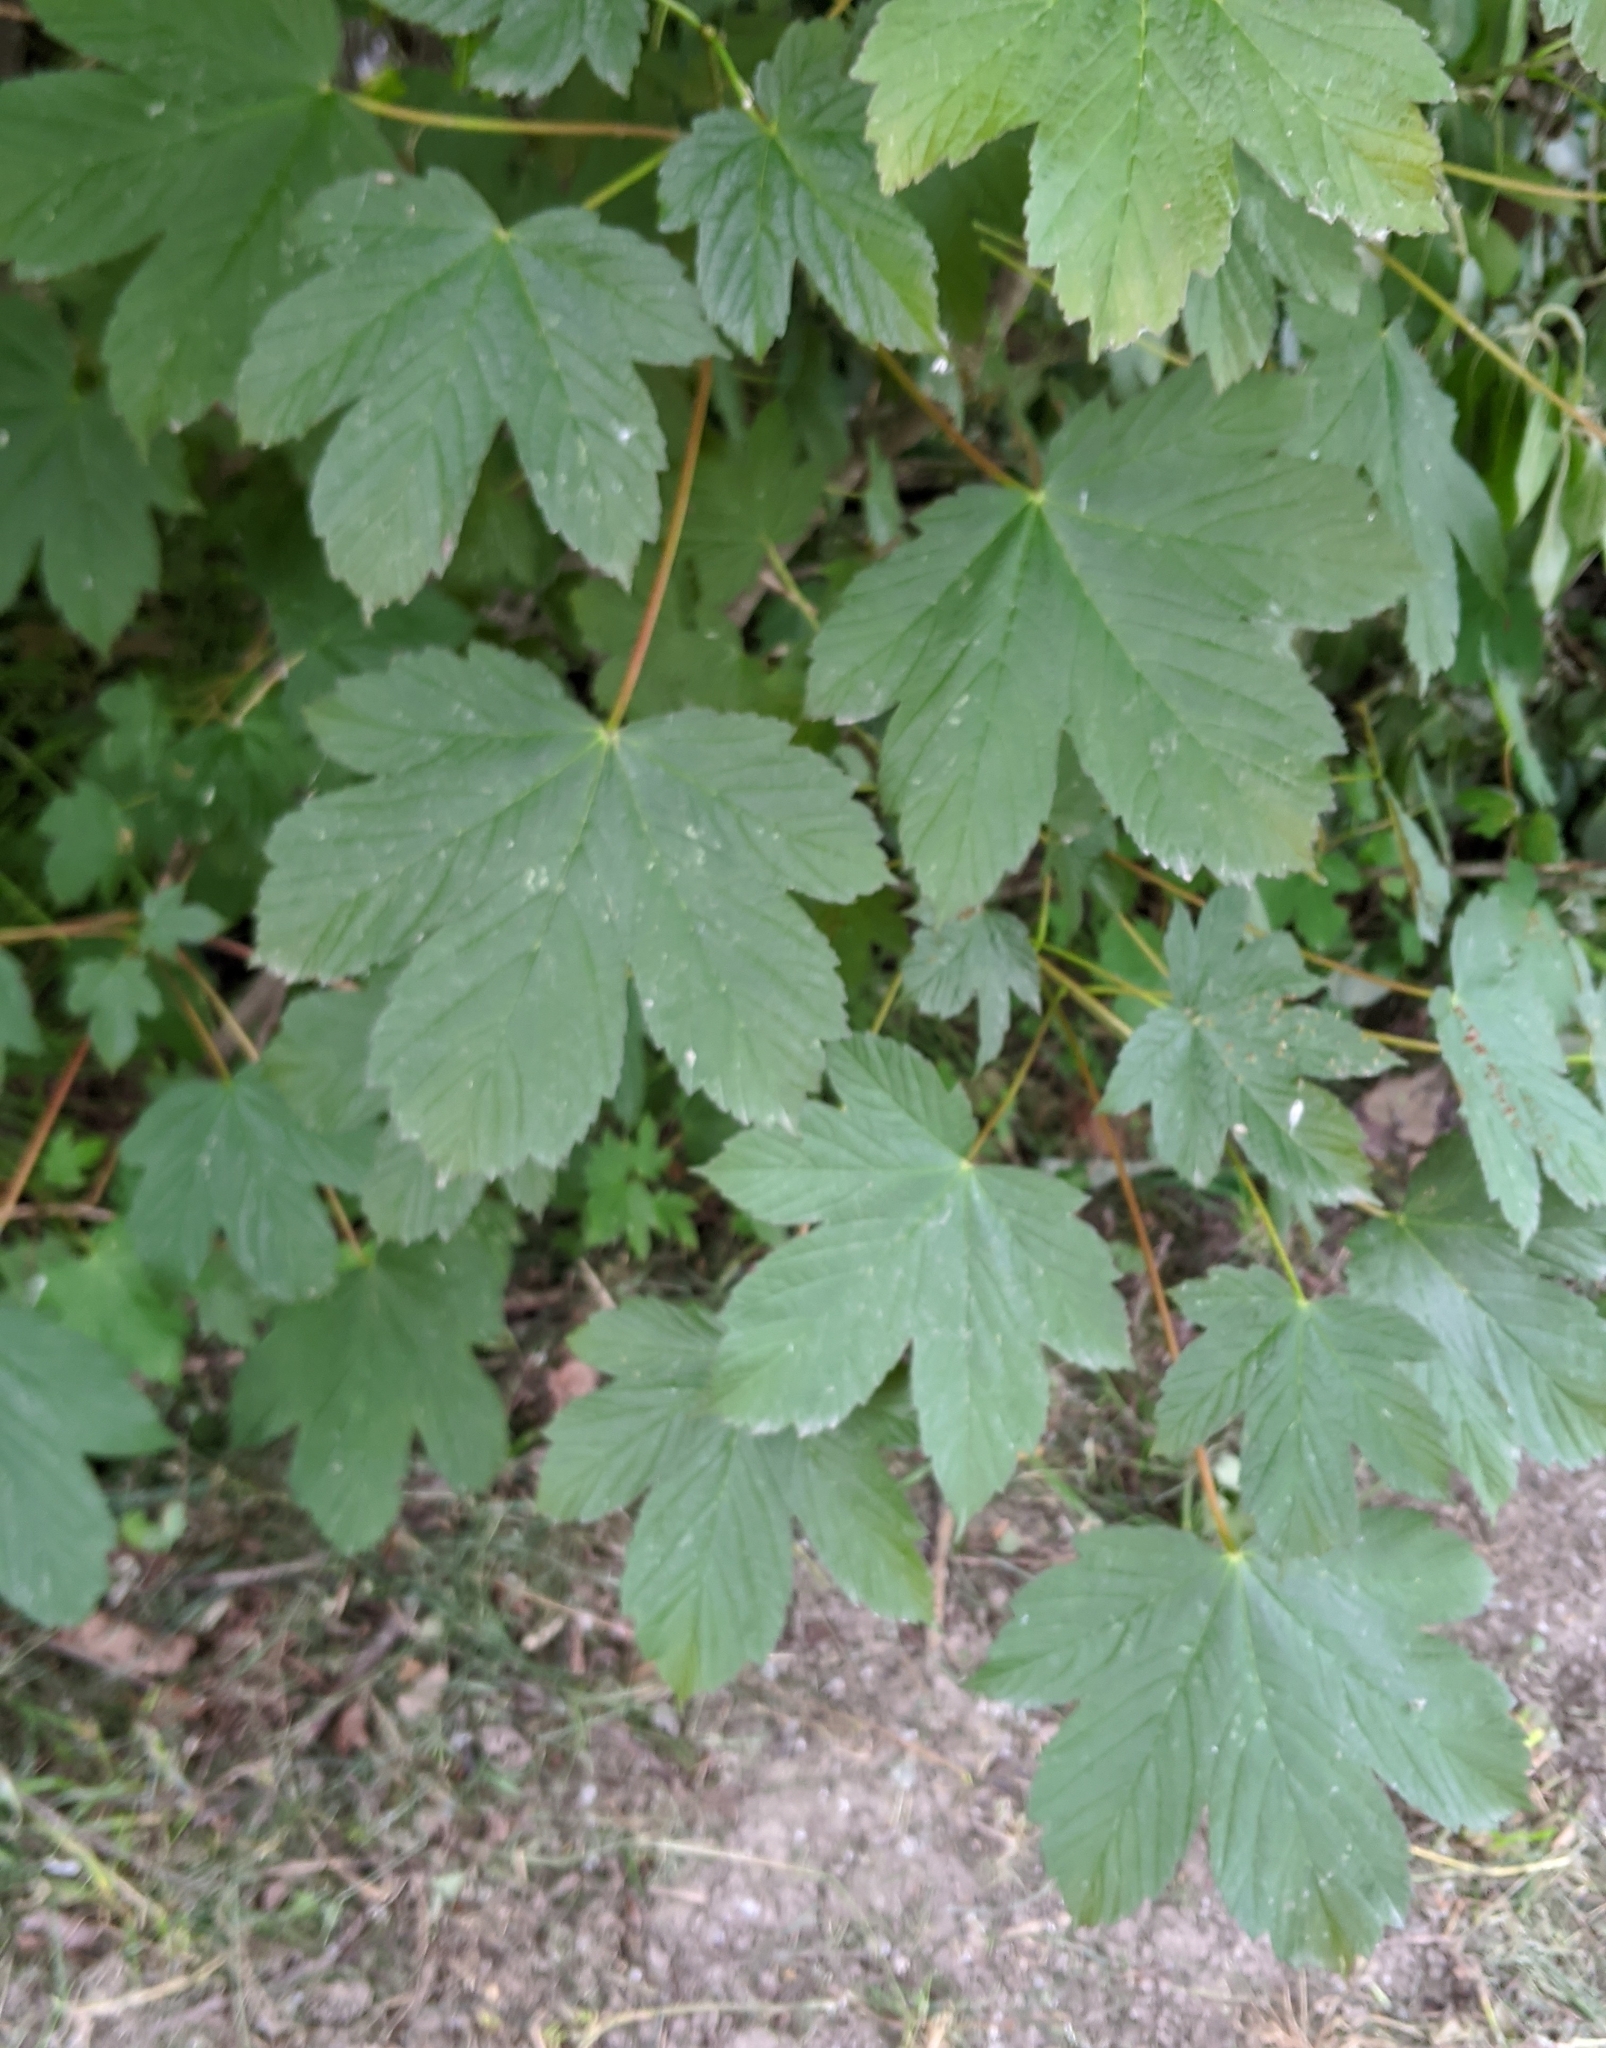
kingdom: Plantae
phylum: Tracheophyta
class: Magnoliopsida
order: Sapindales
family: Sapindaceae
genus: Acer
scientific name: Acer pseudoplatanus
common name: Sycamore
